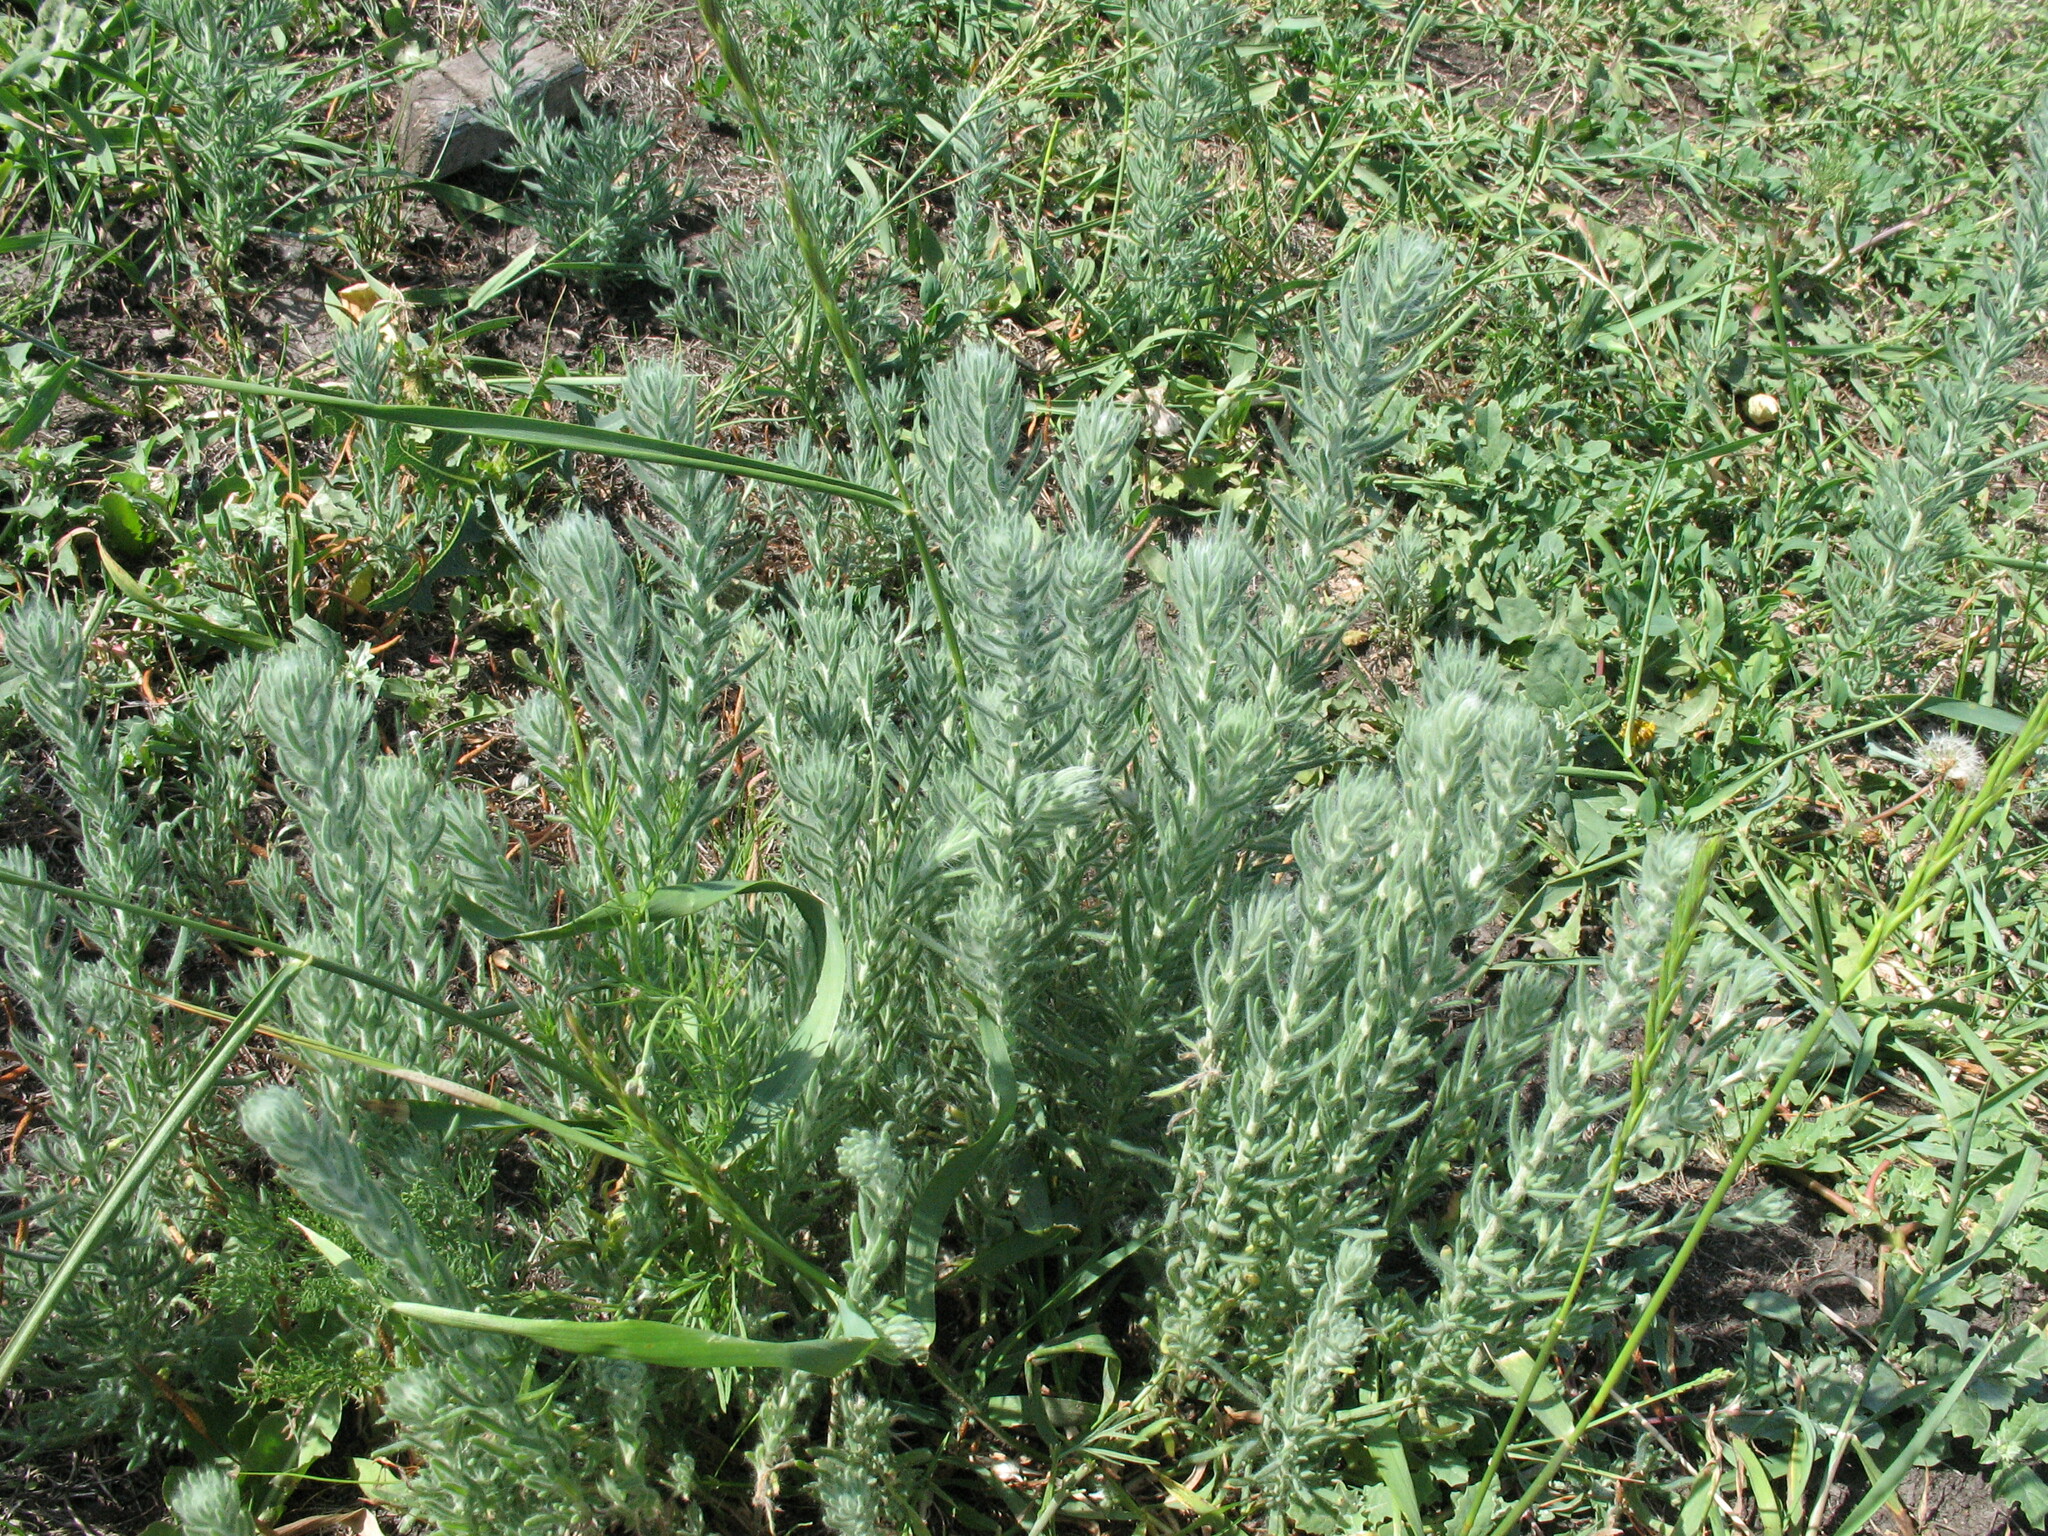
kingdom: Plantae
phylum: Tracheophyta
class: Magnoliopsida
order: Caryophyllales
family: Amaranthaceae
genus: Sedobassia
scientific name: Sedobassia sedoides
